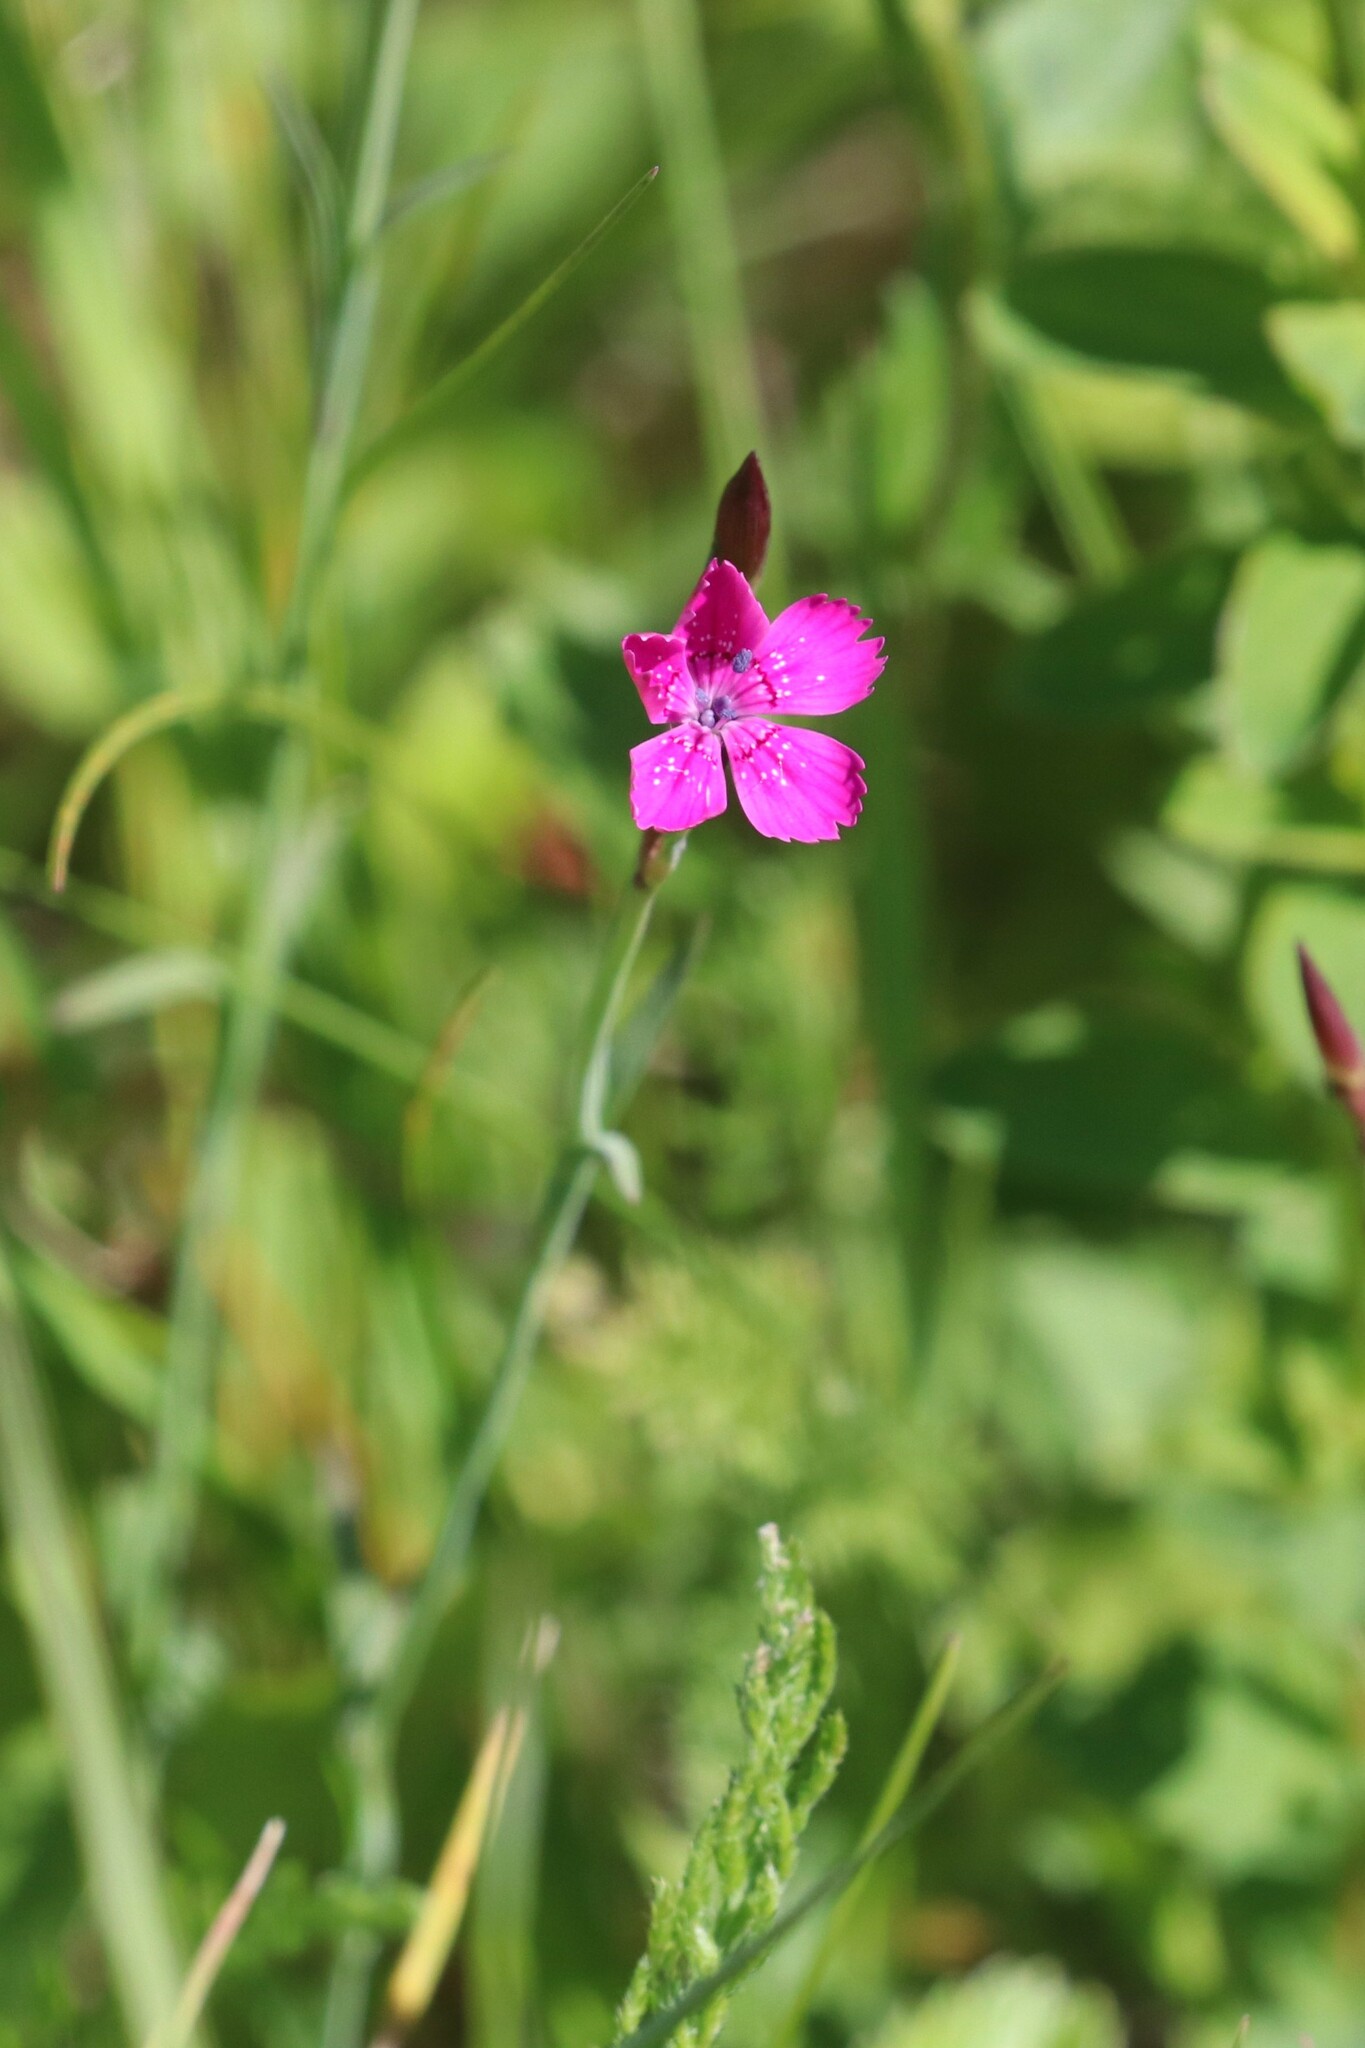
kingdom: Plantae
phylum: Tracheophyta
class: Magnoliopsida
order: Caryophyllales
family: Caryophyllaceae
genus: Dianthus
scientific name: Dianthus deltoides
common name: Maiden pink
